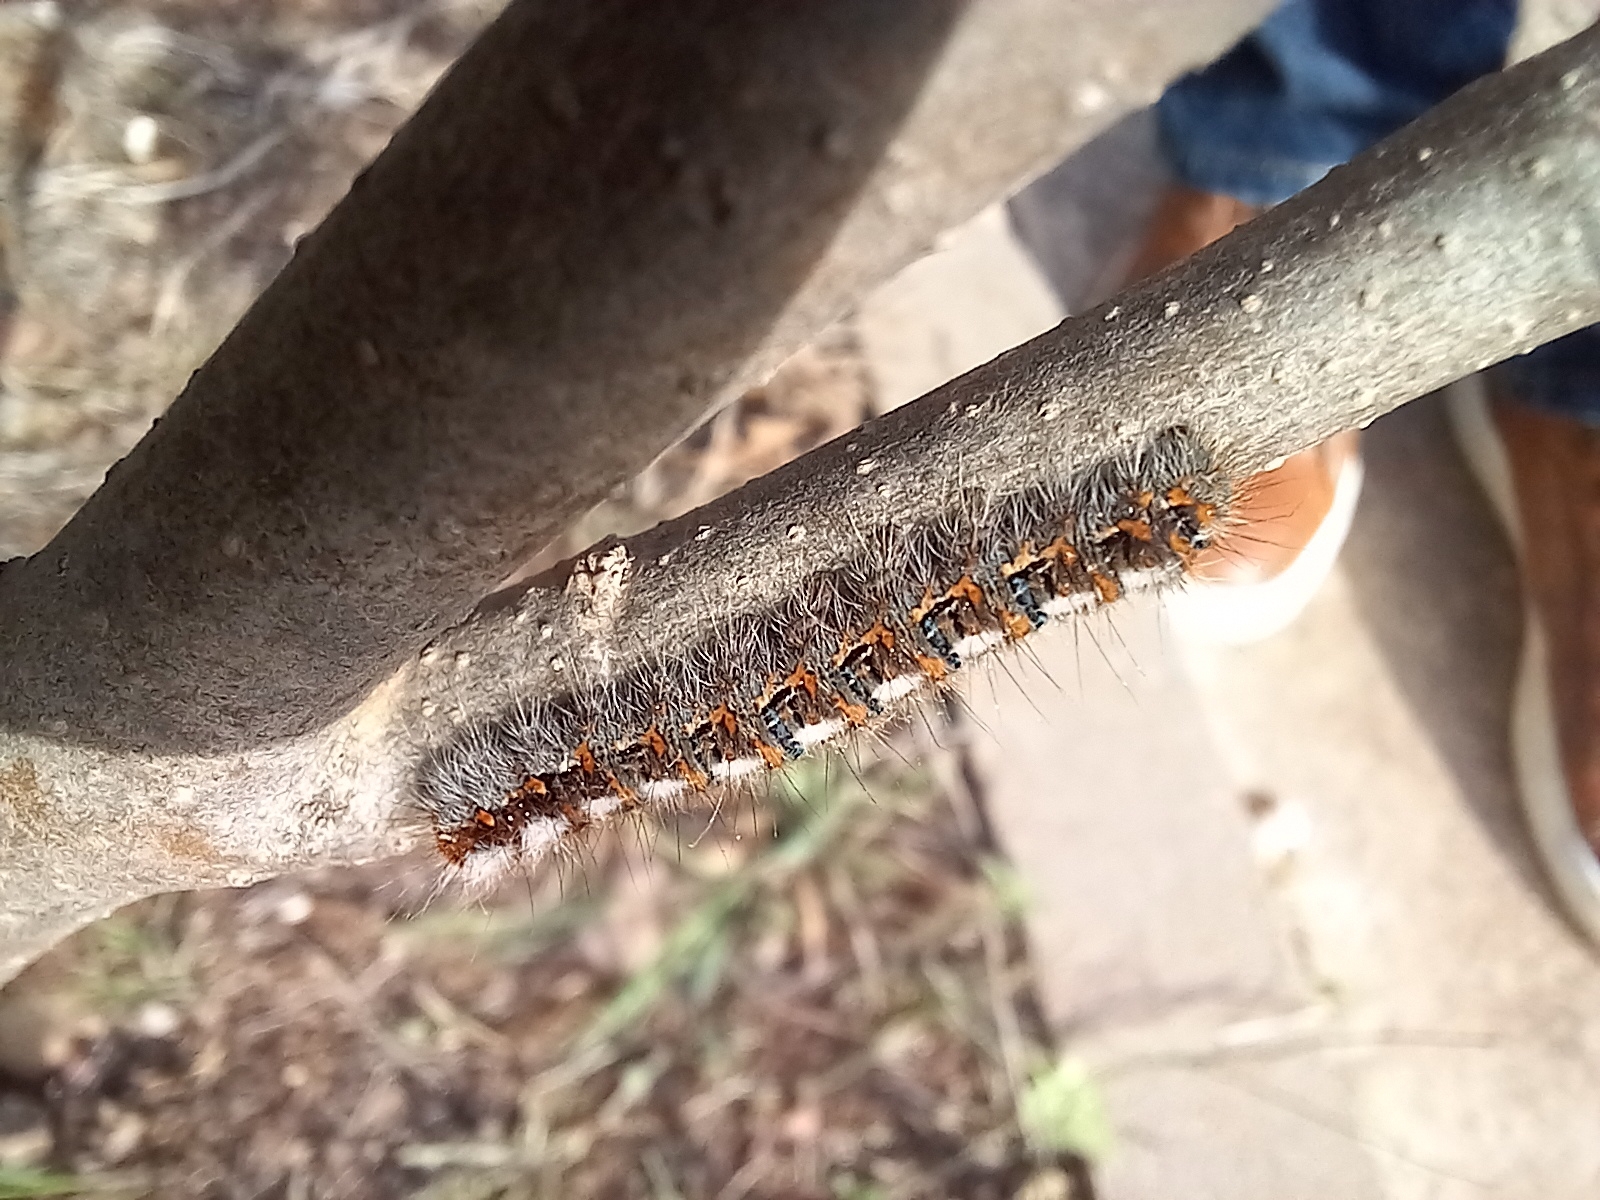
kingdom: Animalia
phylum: Arthropoda
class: Insecta
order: Lepidoptera
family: Lasiocampidae
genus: Lasiocampa
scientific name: Lasiocampa quercus
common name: Oak eggar
